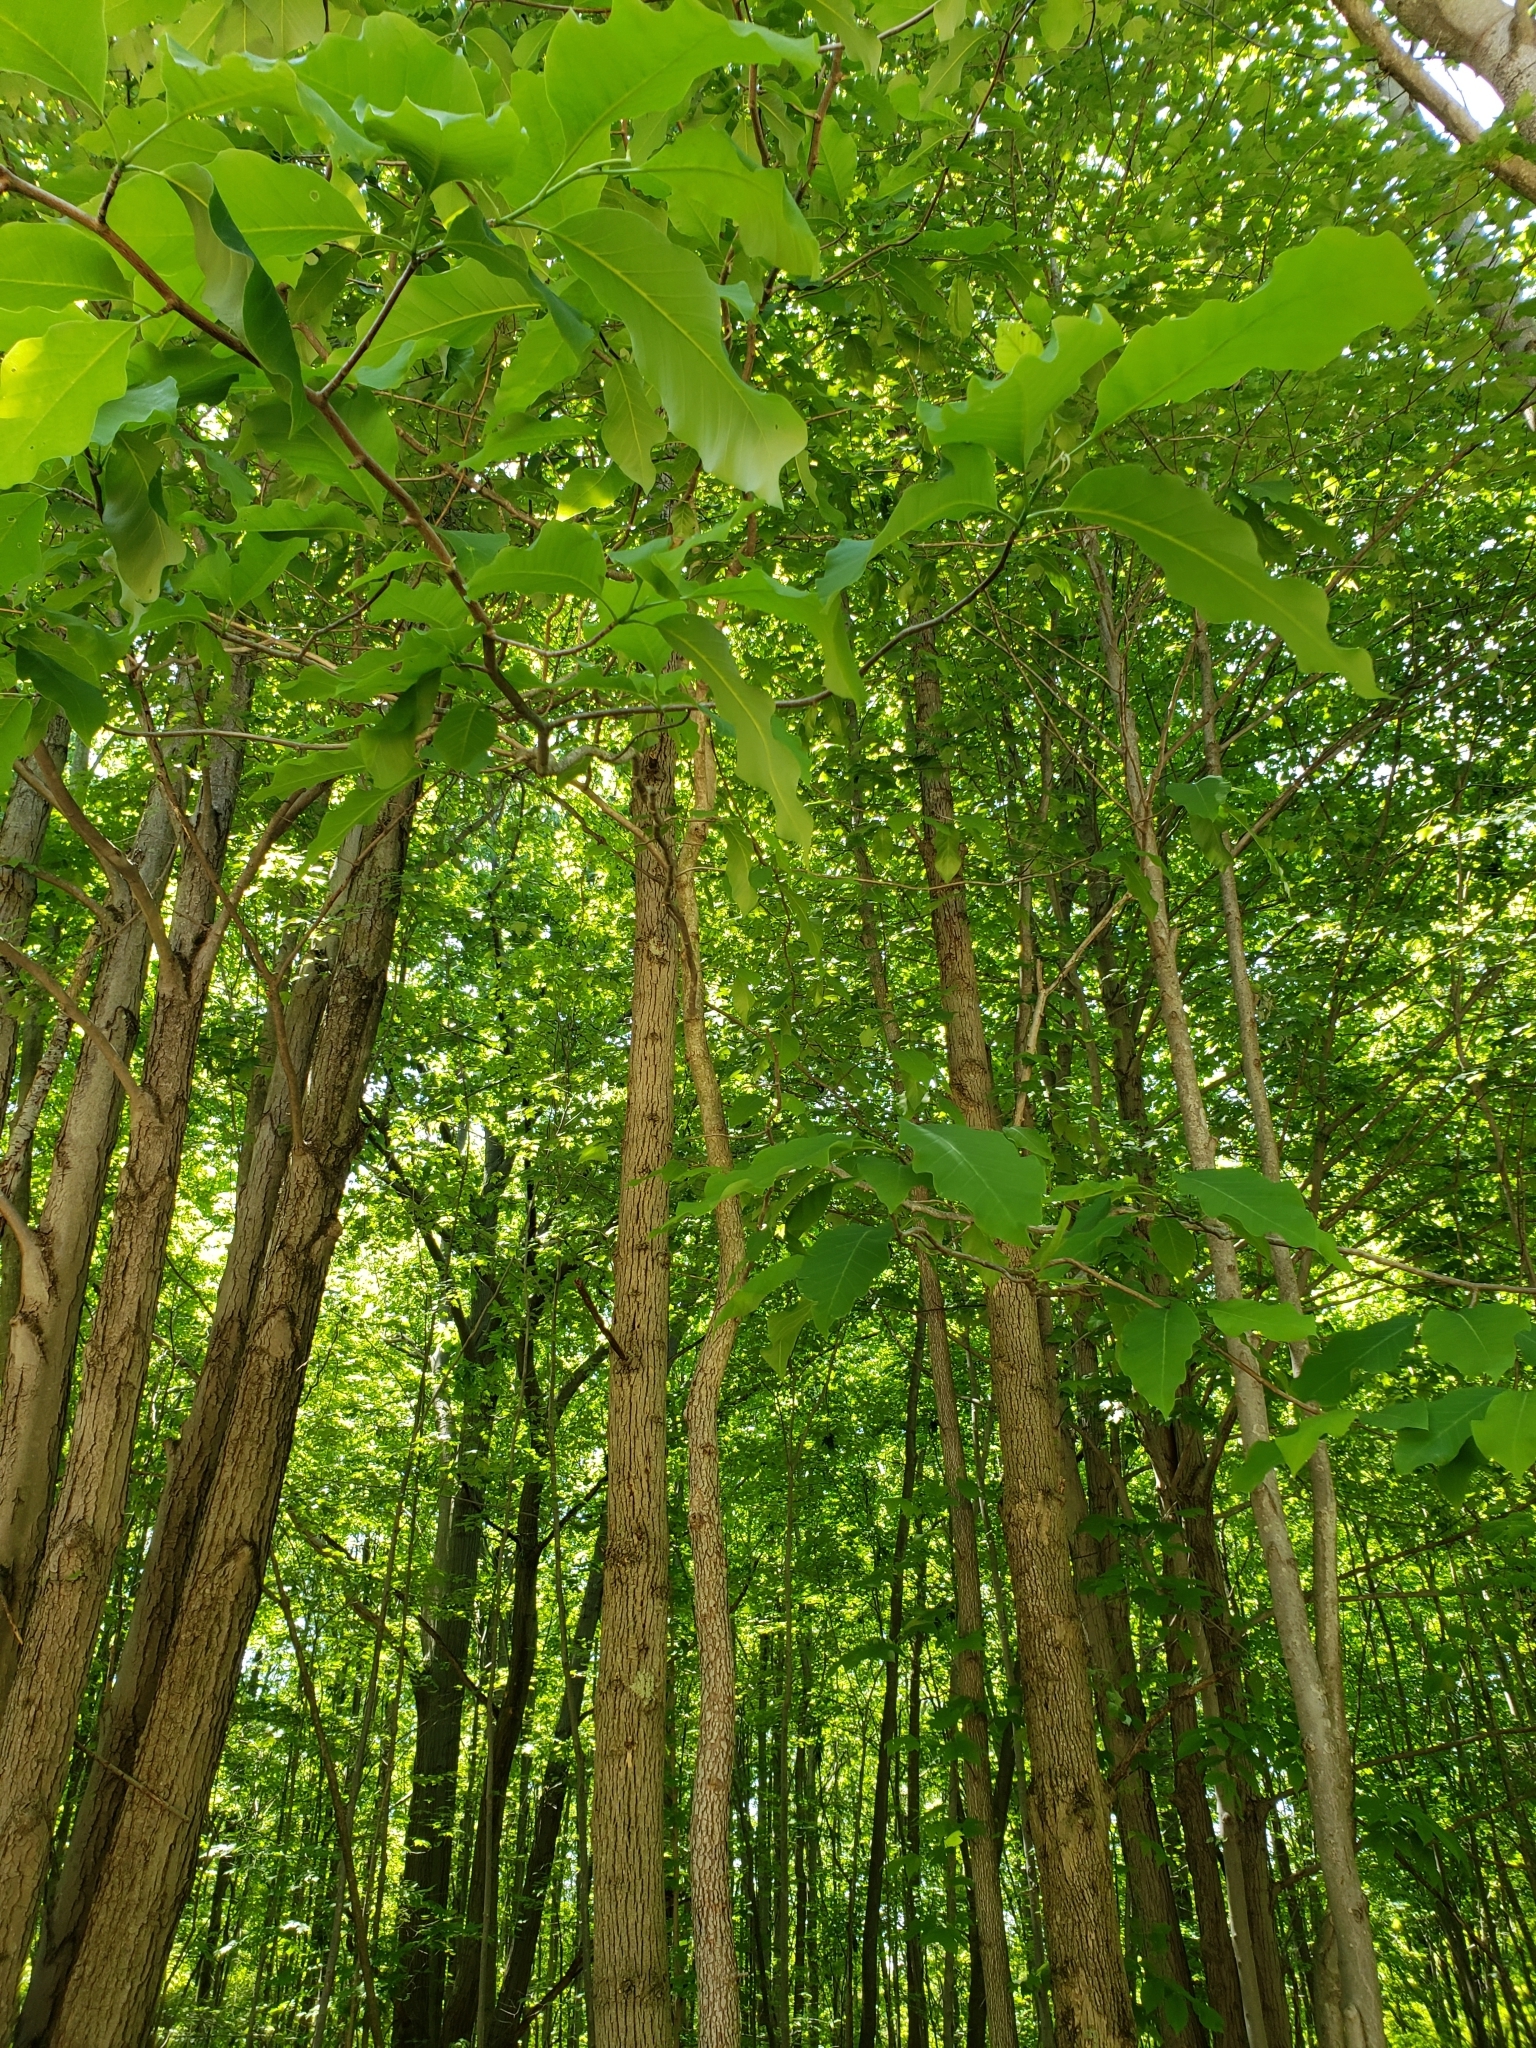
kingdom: Plantae
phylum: Tracheophyta
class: Magnoliopsida
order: Magnoliales
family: Magnoliaceae
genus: Magnolia
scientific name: Magnolia acuminata
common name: Cucumber magnolia
